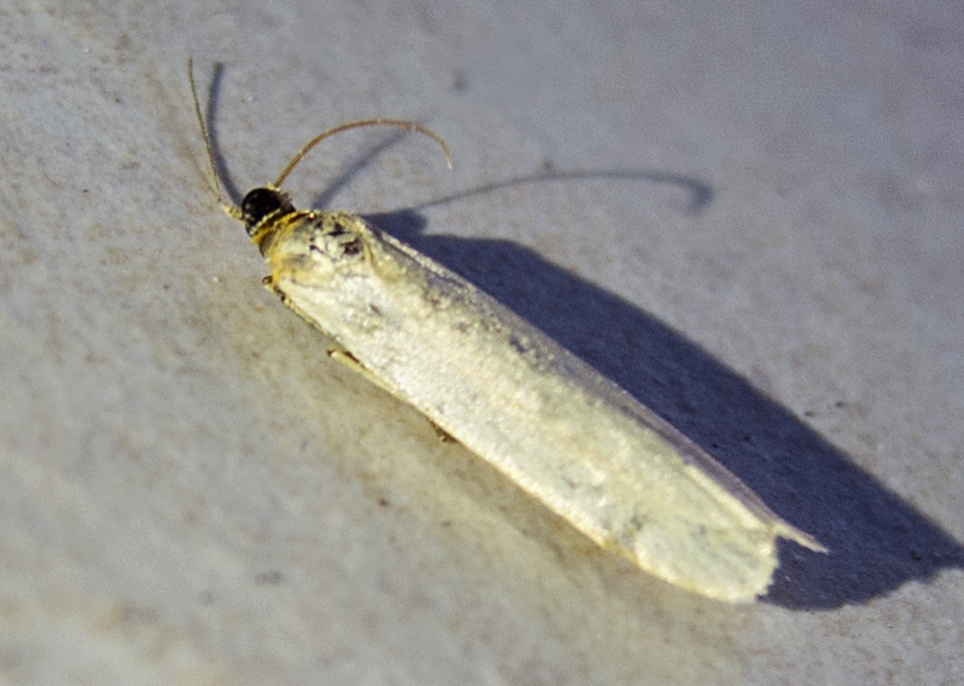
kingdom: Animalia
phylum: Arthropoda
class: Insecta
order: Lepidoptera
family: Erebidae
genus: Eilema
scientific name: Eilema
